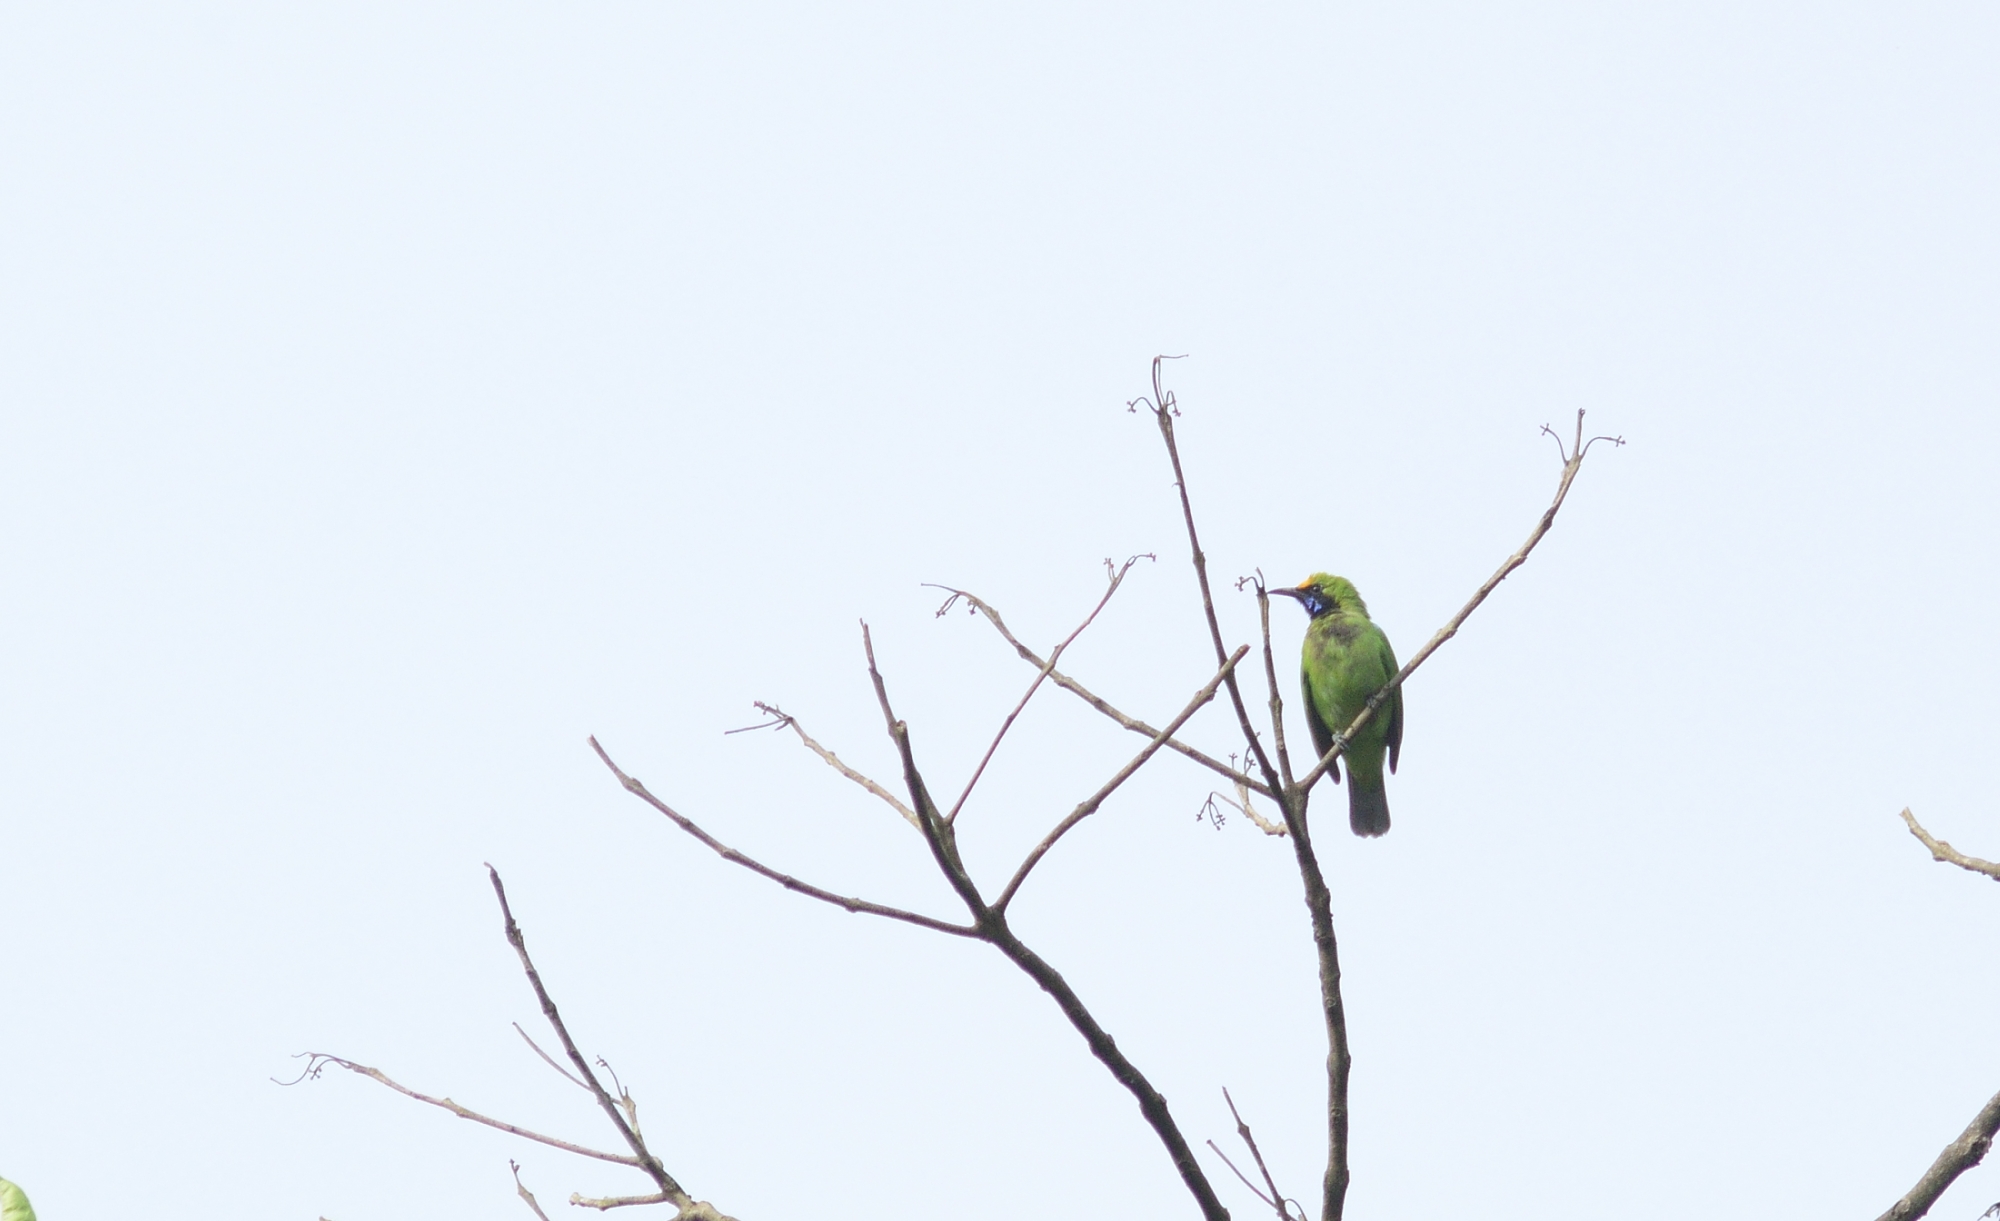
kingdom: Animalia
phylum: Chordata
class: Aves
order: Passeriformes
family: Chloropseidae
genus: Chloropsis
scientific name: Chloropsis aurifrons
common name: Golden-fronted leafbird
